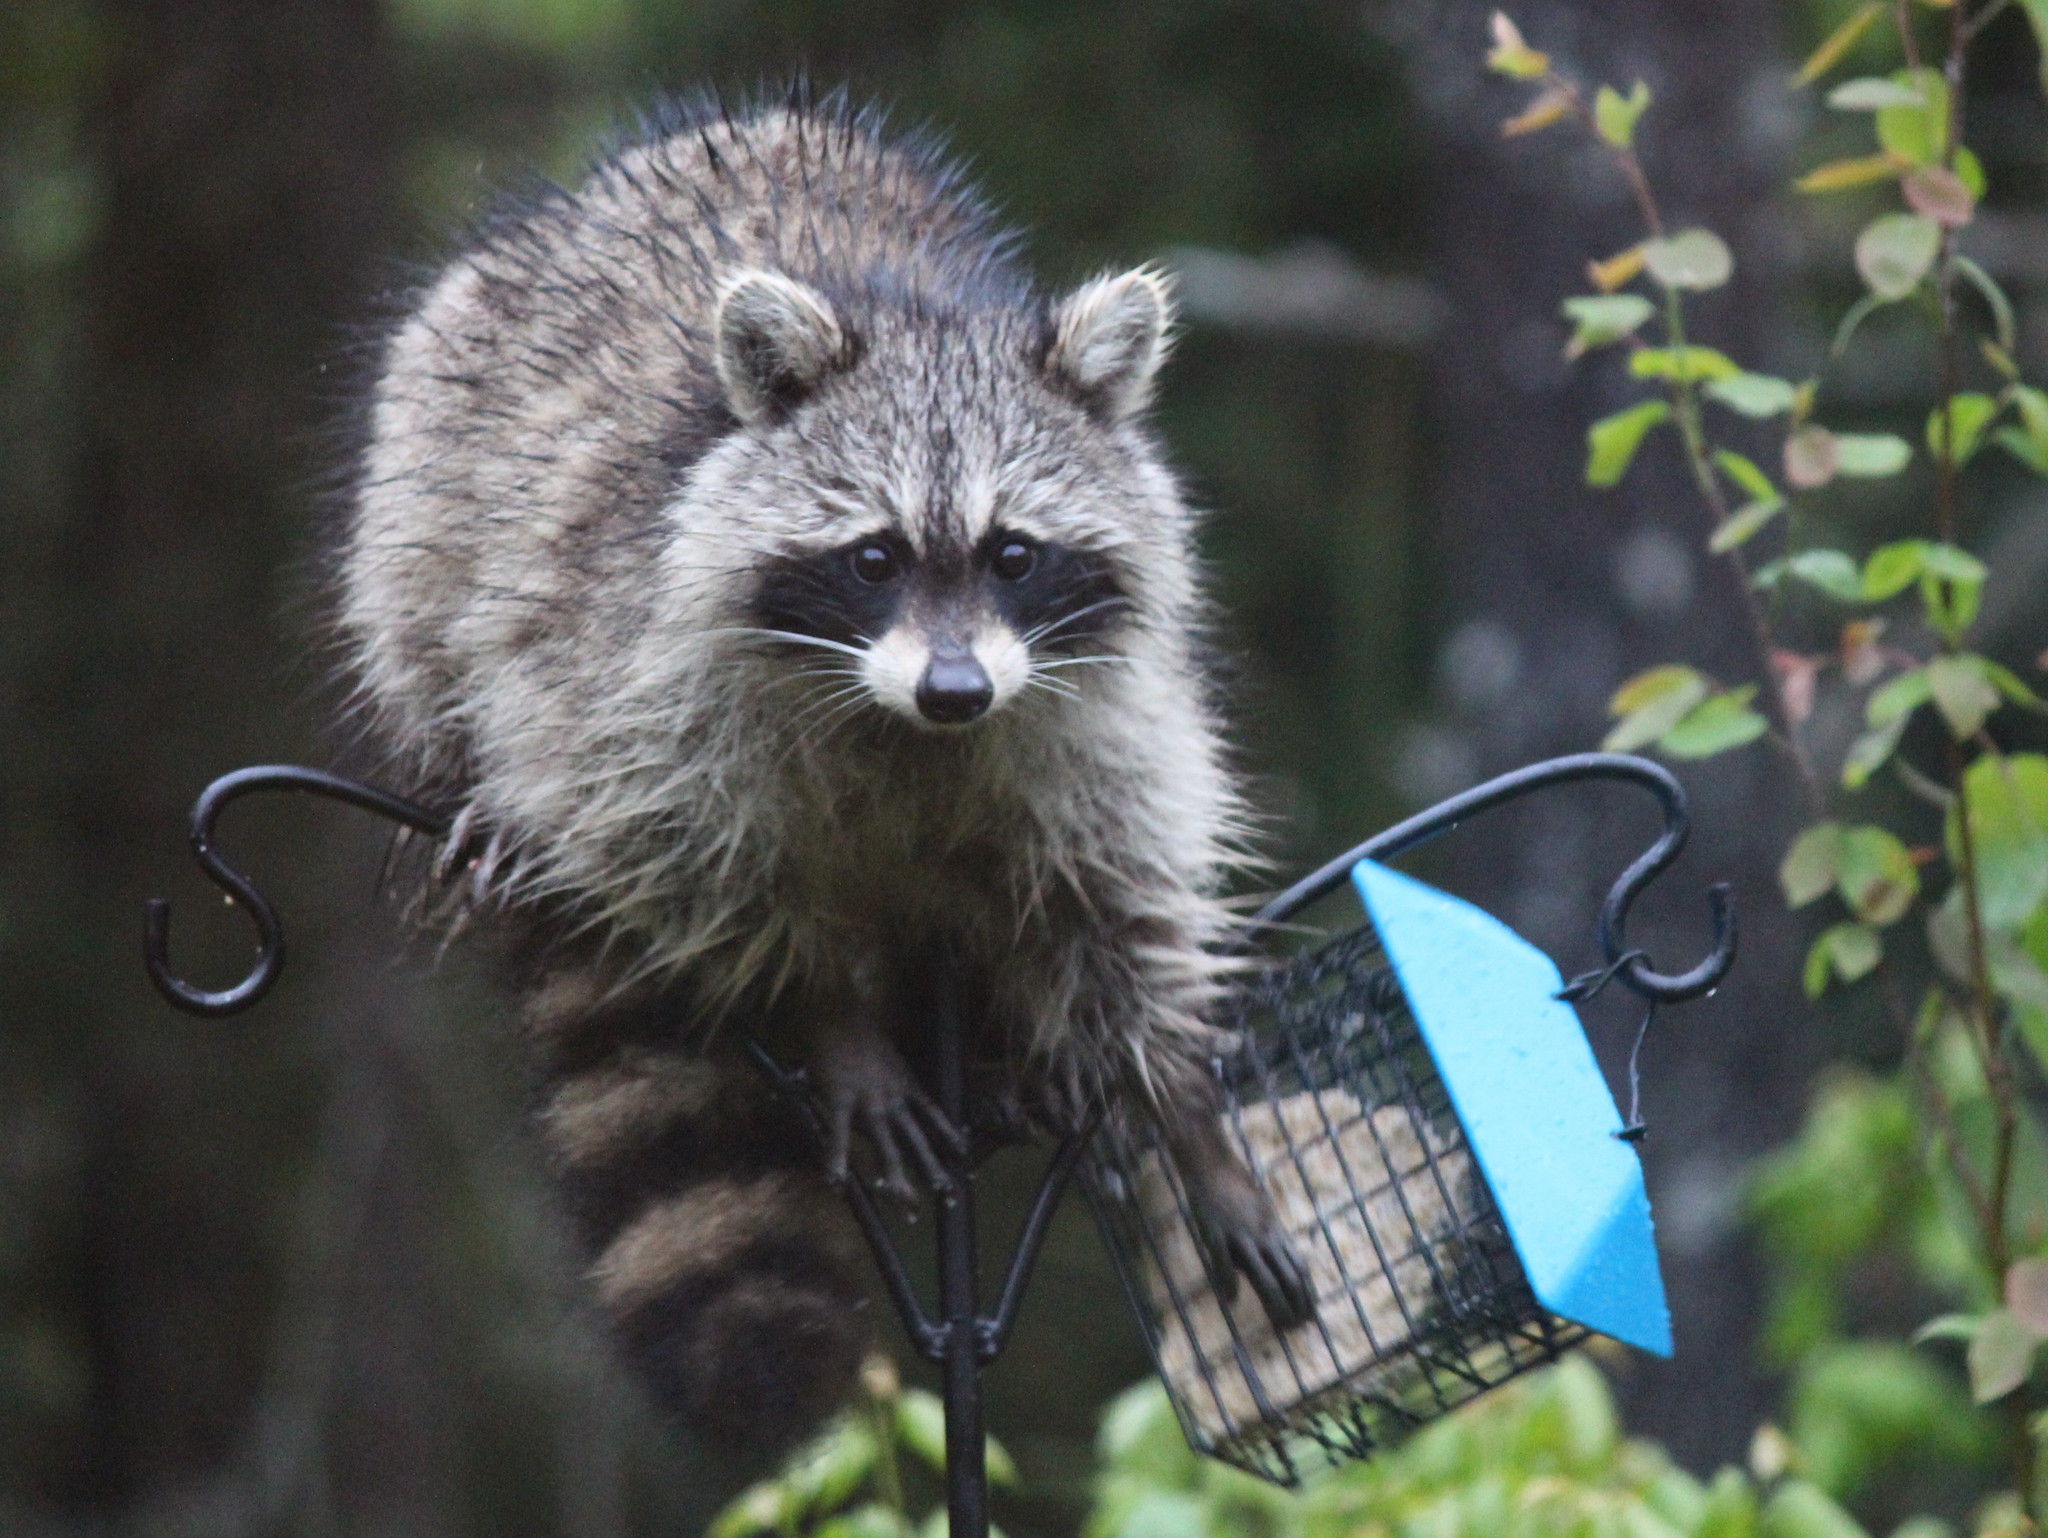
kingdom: Animalia
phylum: Chordata
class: Mammalia
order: Carnivora
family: Procyonidae
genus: Procyon
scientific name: Procyon lotor
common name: Raccoon
